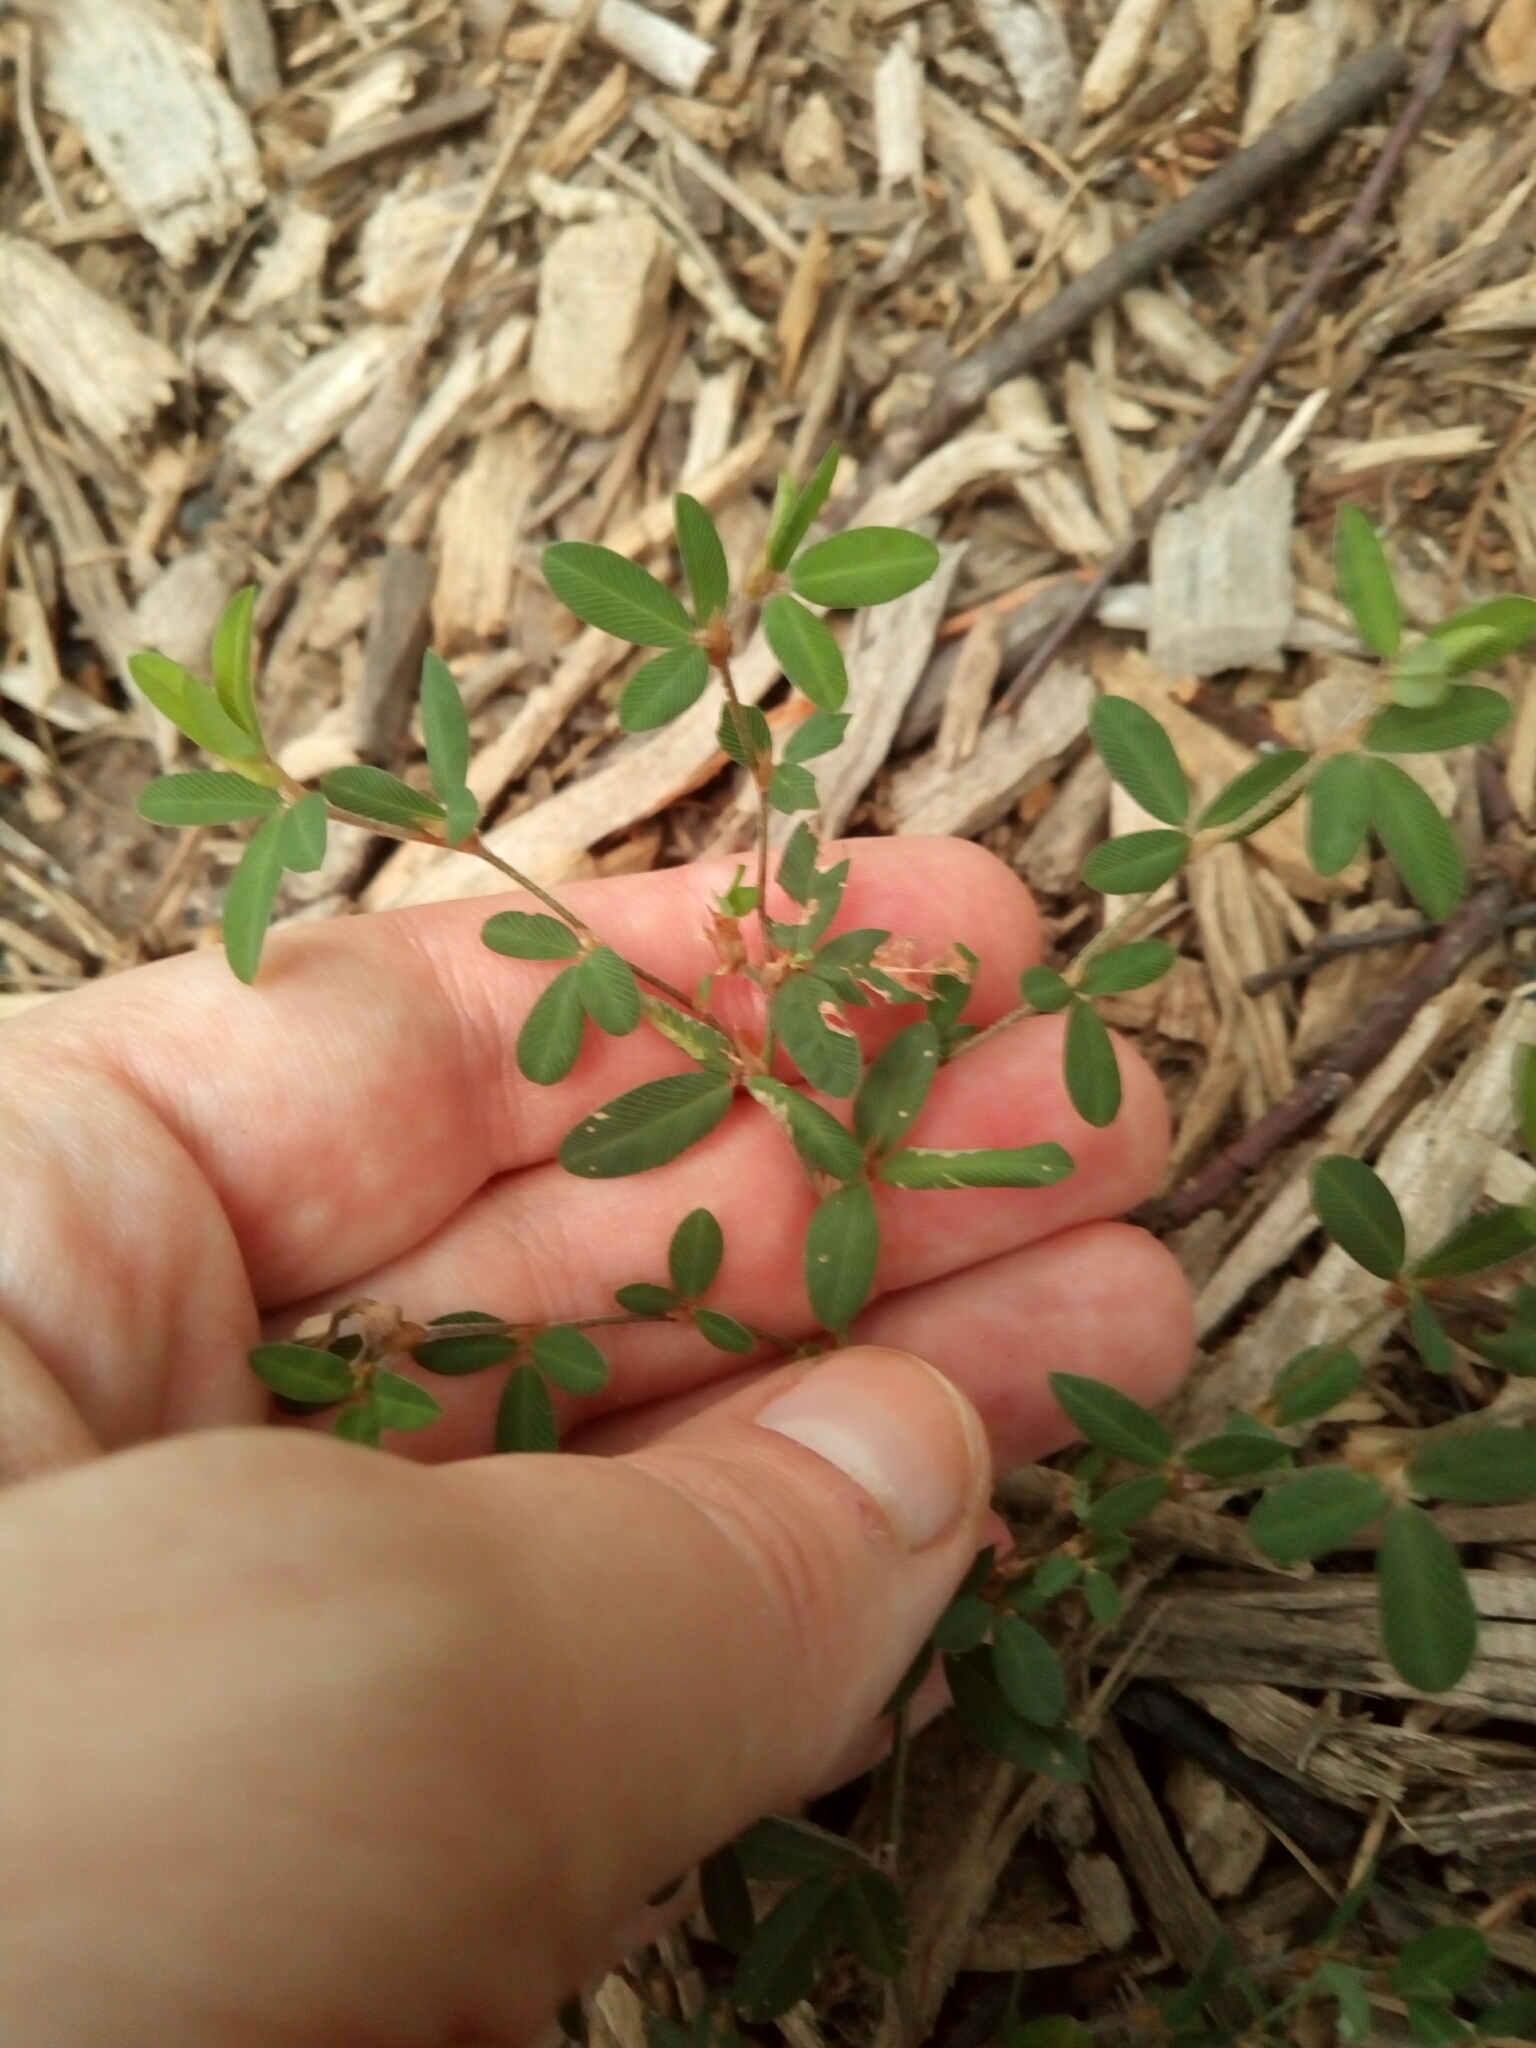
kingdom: Plantae
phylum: Tracheophyta
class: Magnoliopsida
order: Fabales
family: Fabaceae
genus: Kummerowia
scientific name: Kummerowia striata
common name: Japanese clover
